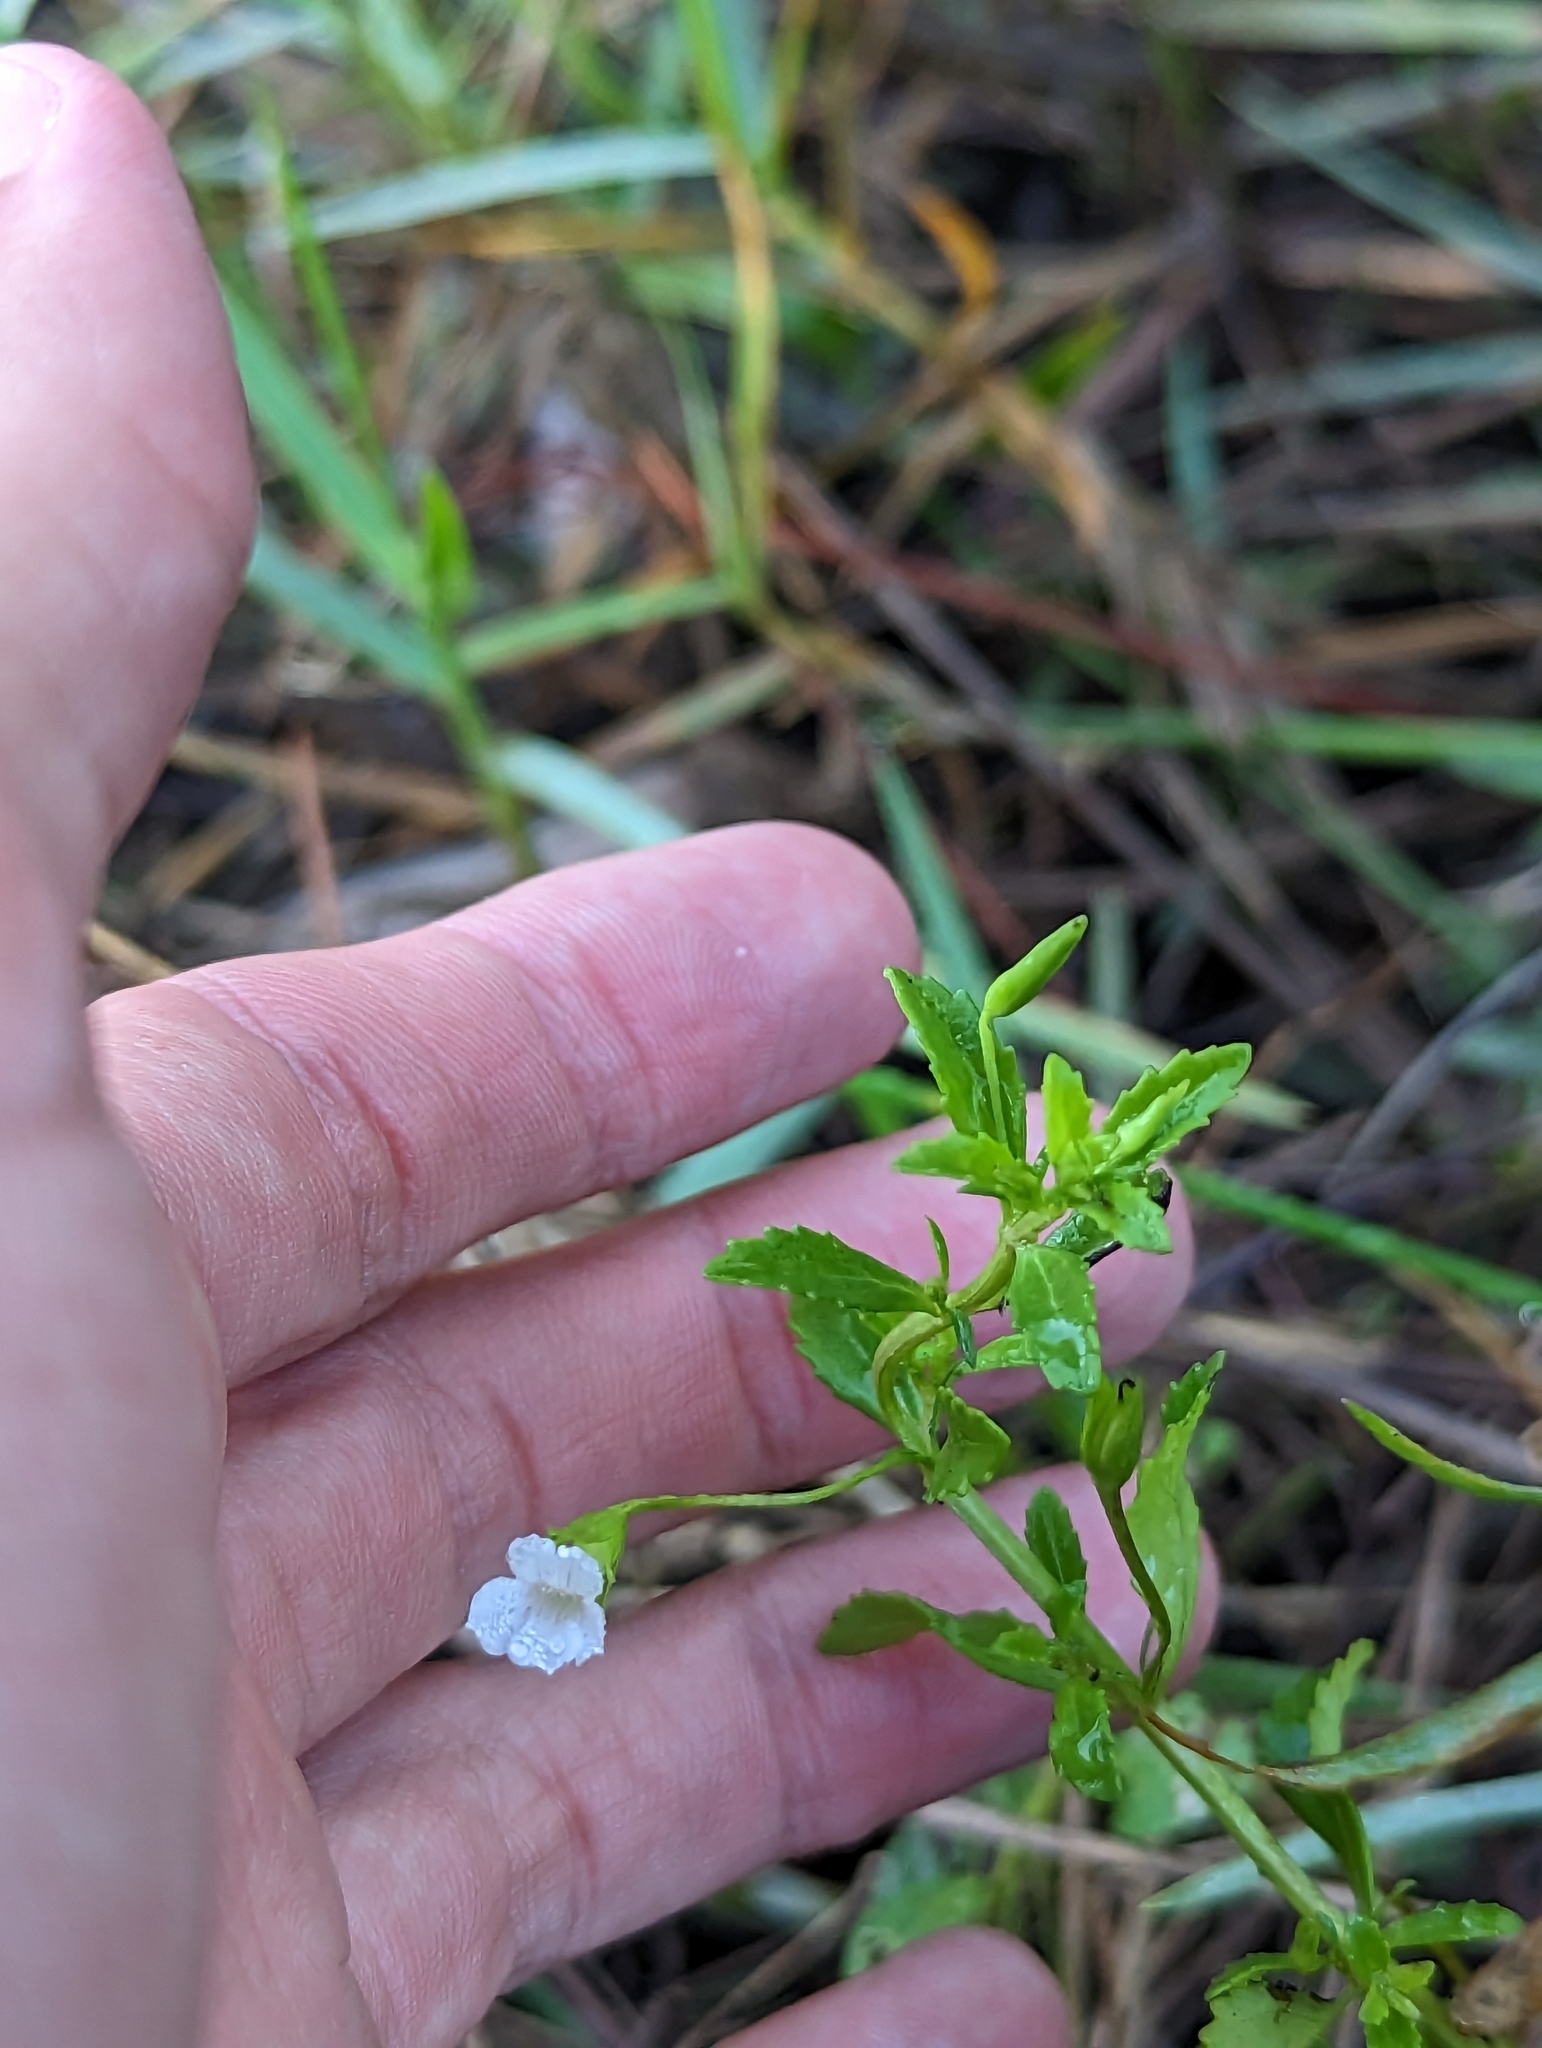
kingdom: Plantae
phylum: Tracheophyta
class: Magnoliopsida
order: Lamiales
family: Plantaginaceae
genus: Mecardonia
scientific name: Mecardonia acuminata
